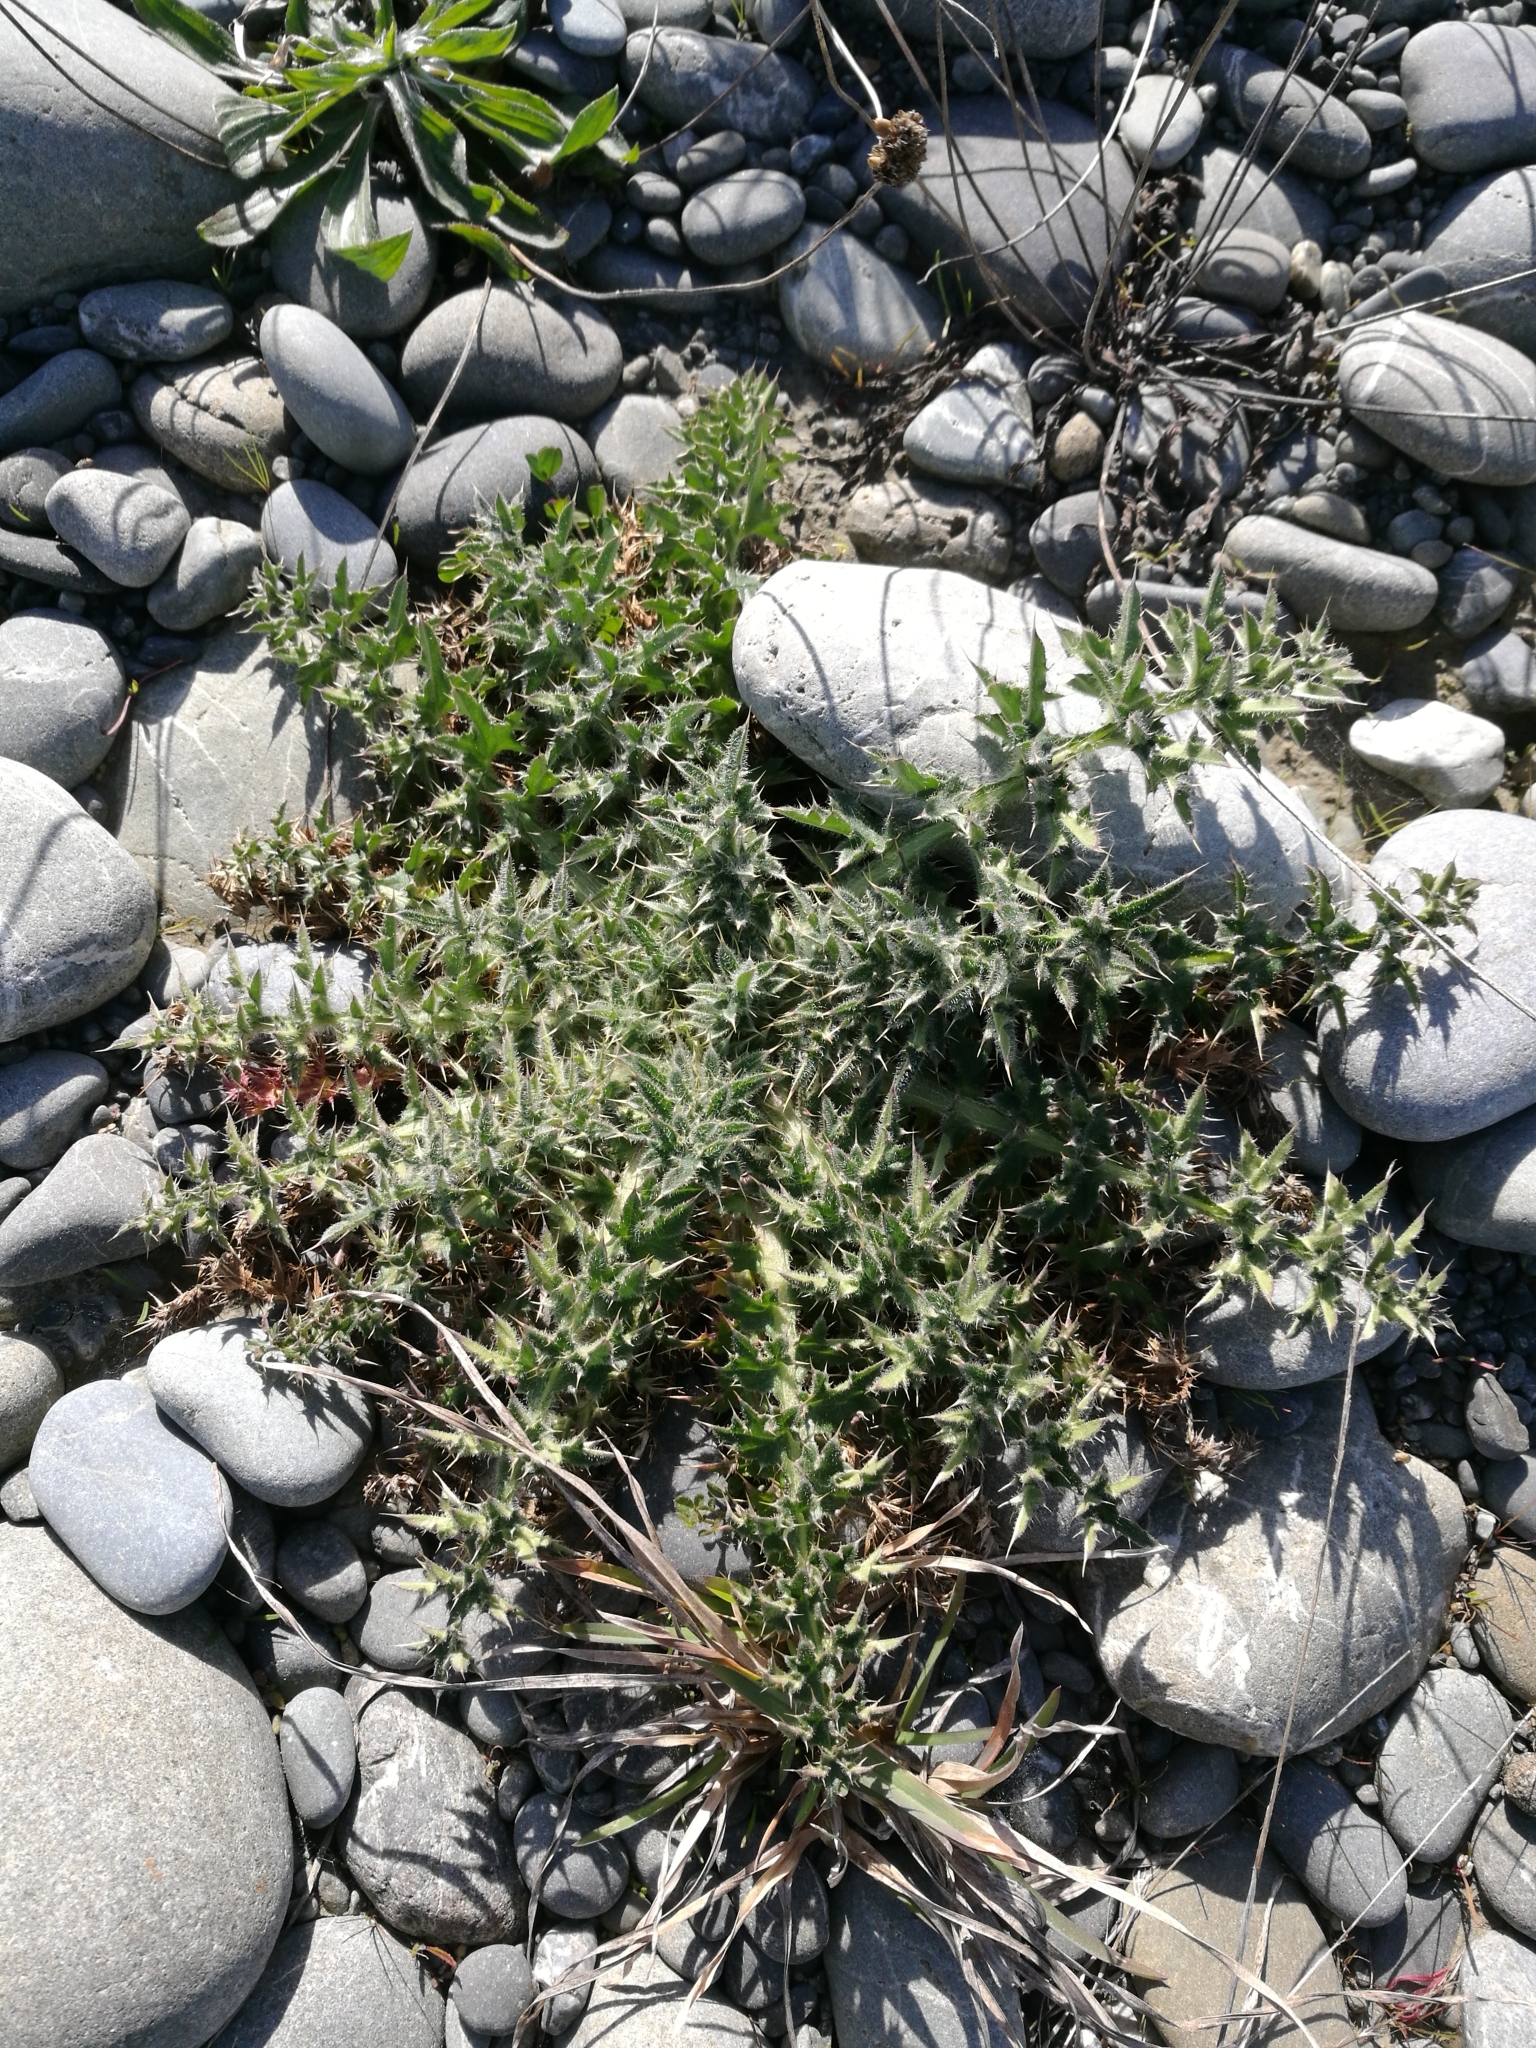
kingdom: Plantae
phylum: Tracheophyta
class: Magnoliopsida
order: Asterales
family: Asteraceae
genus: Cirsium
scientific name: Cirsium vulgare
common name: Bull thistle
